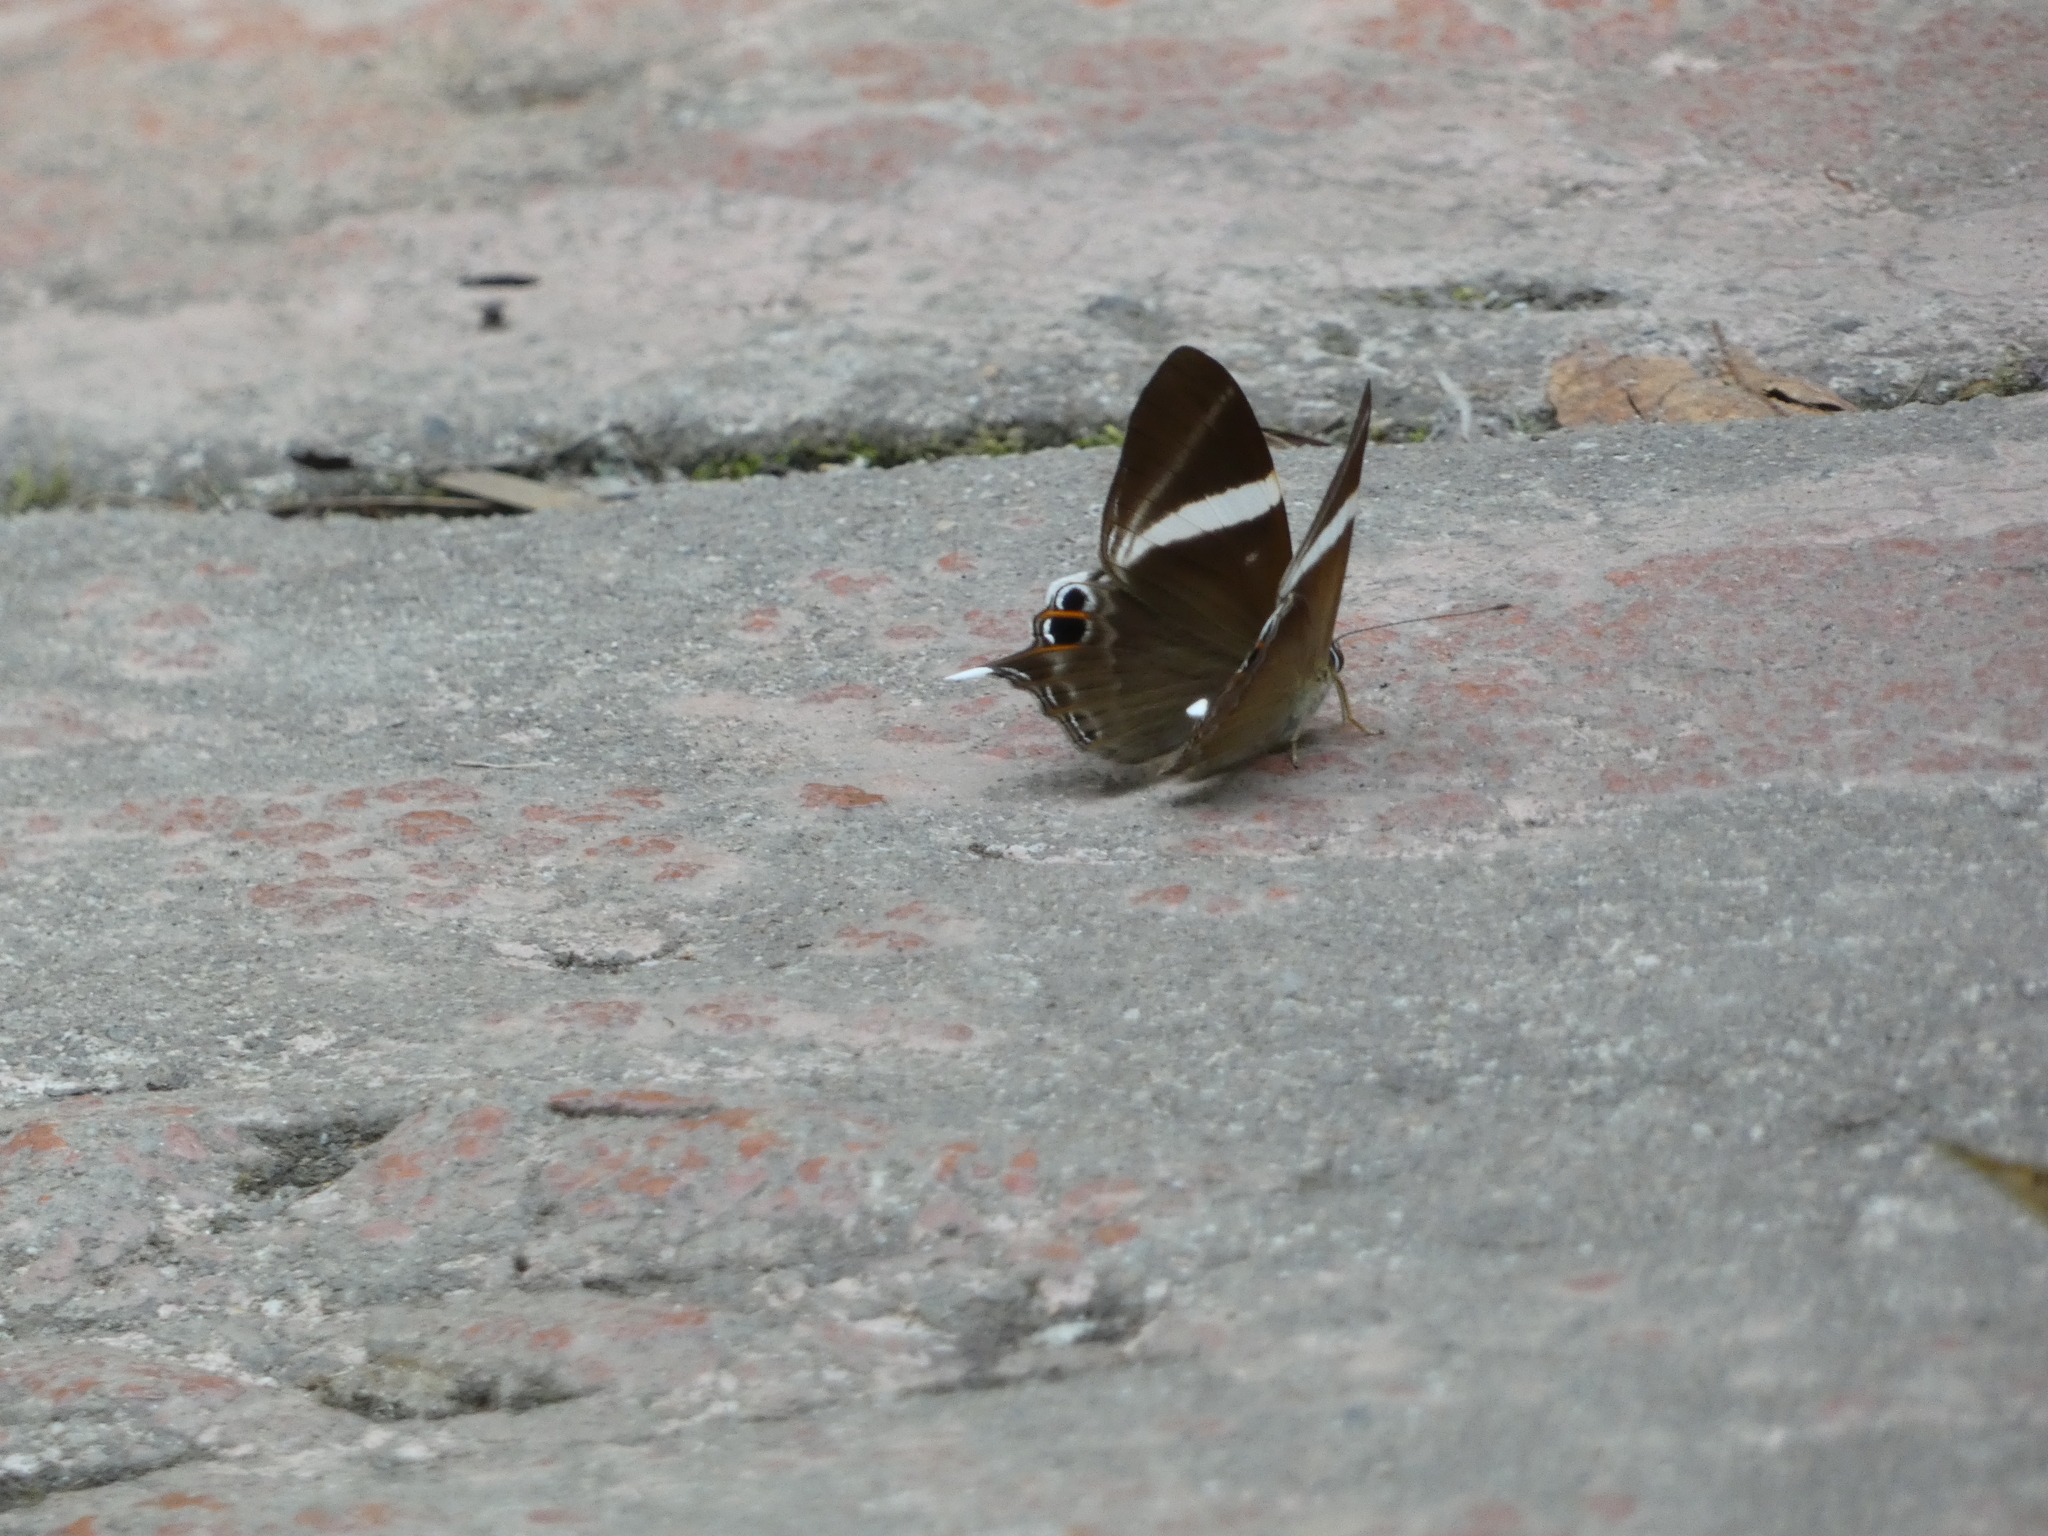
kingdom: Animalia
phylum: Arthropoda
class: Insecta
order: Lepidoptera
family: Lycaenidae
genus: Abisara
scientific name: Abisara neophron
